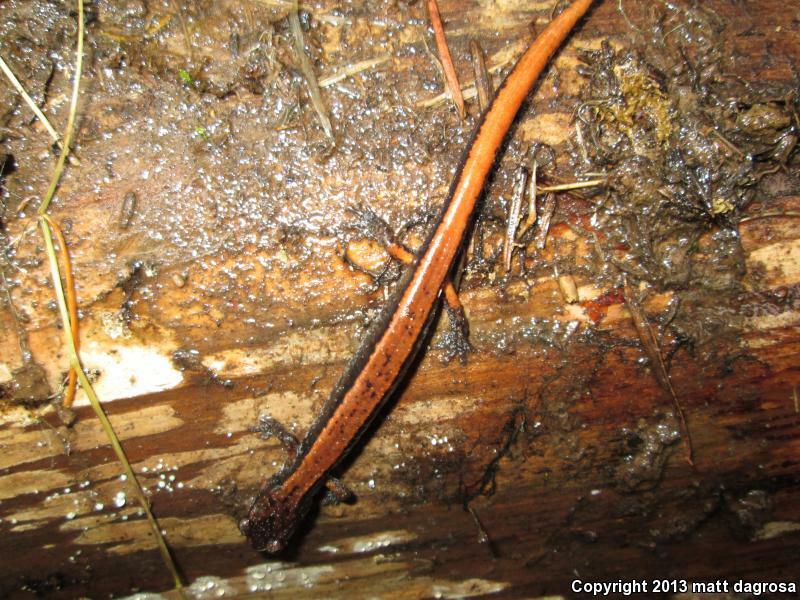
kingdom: Animalia
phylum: Chordata
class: Amphibia
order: Caudata
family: Plethodontidae
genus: Plethodon
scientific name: Plethodon vehiculum
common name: Western red-backed salamander
